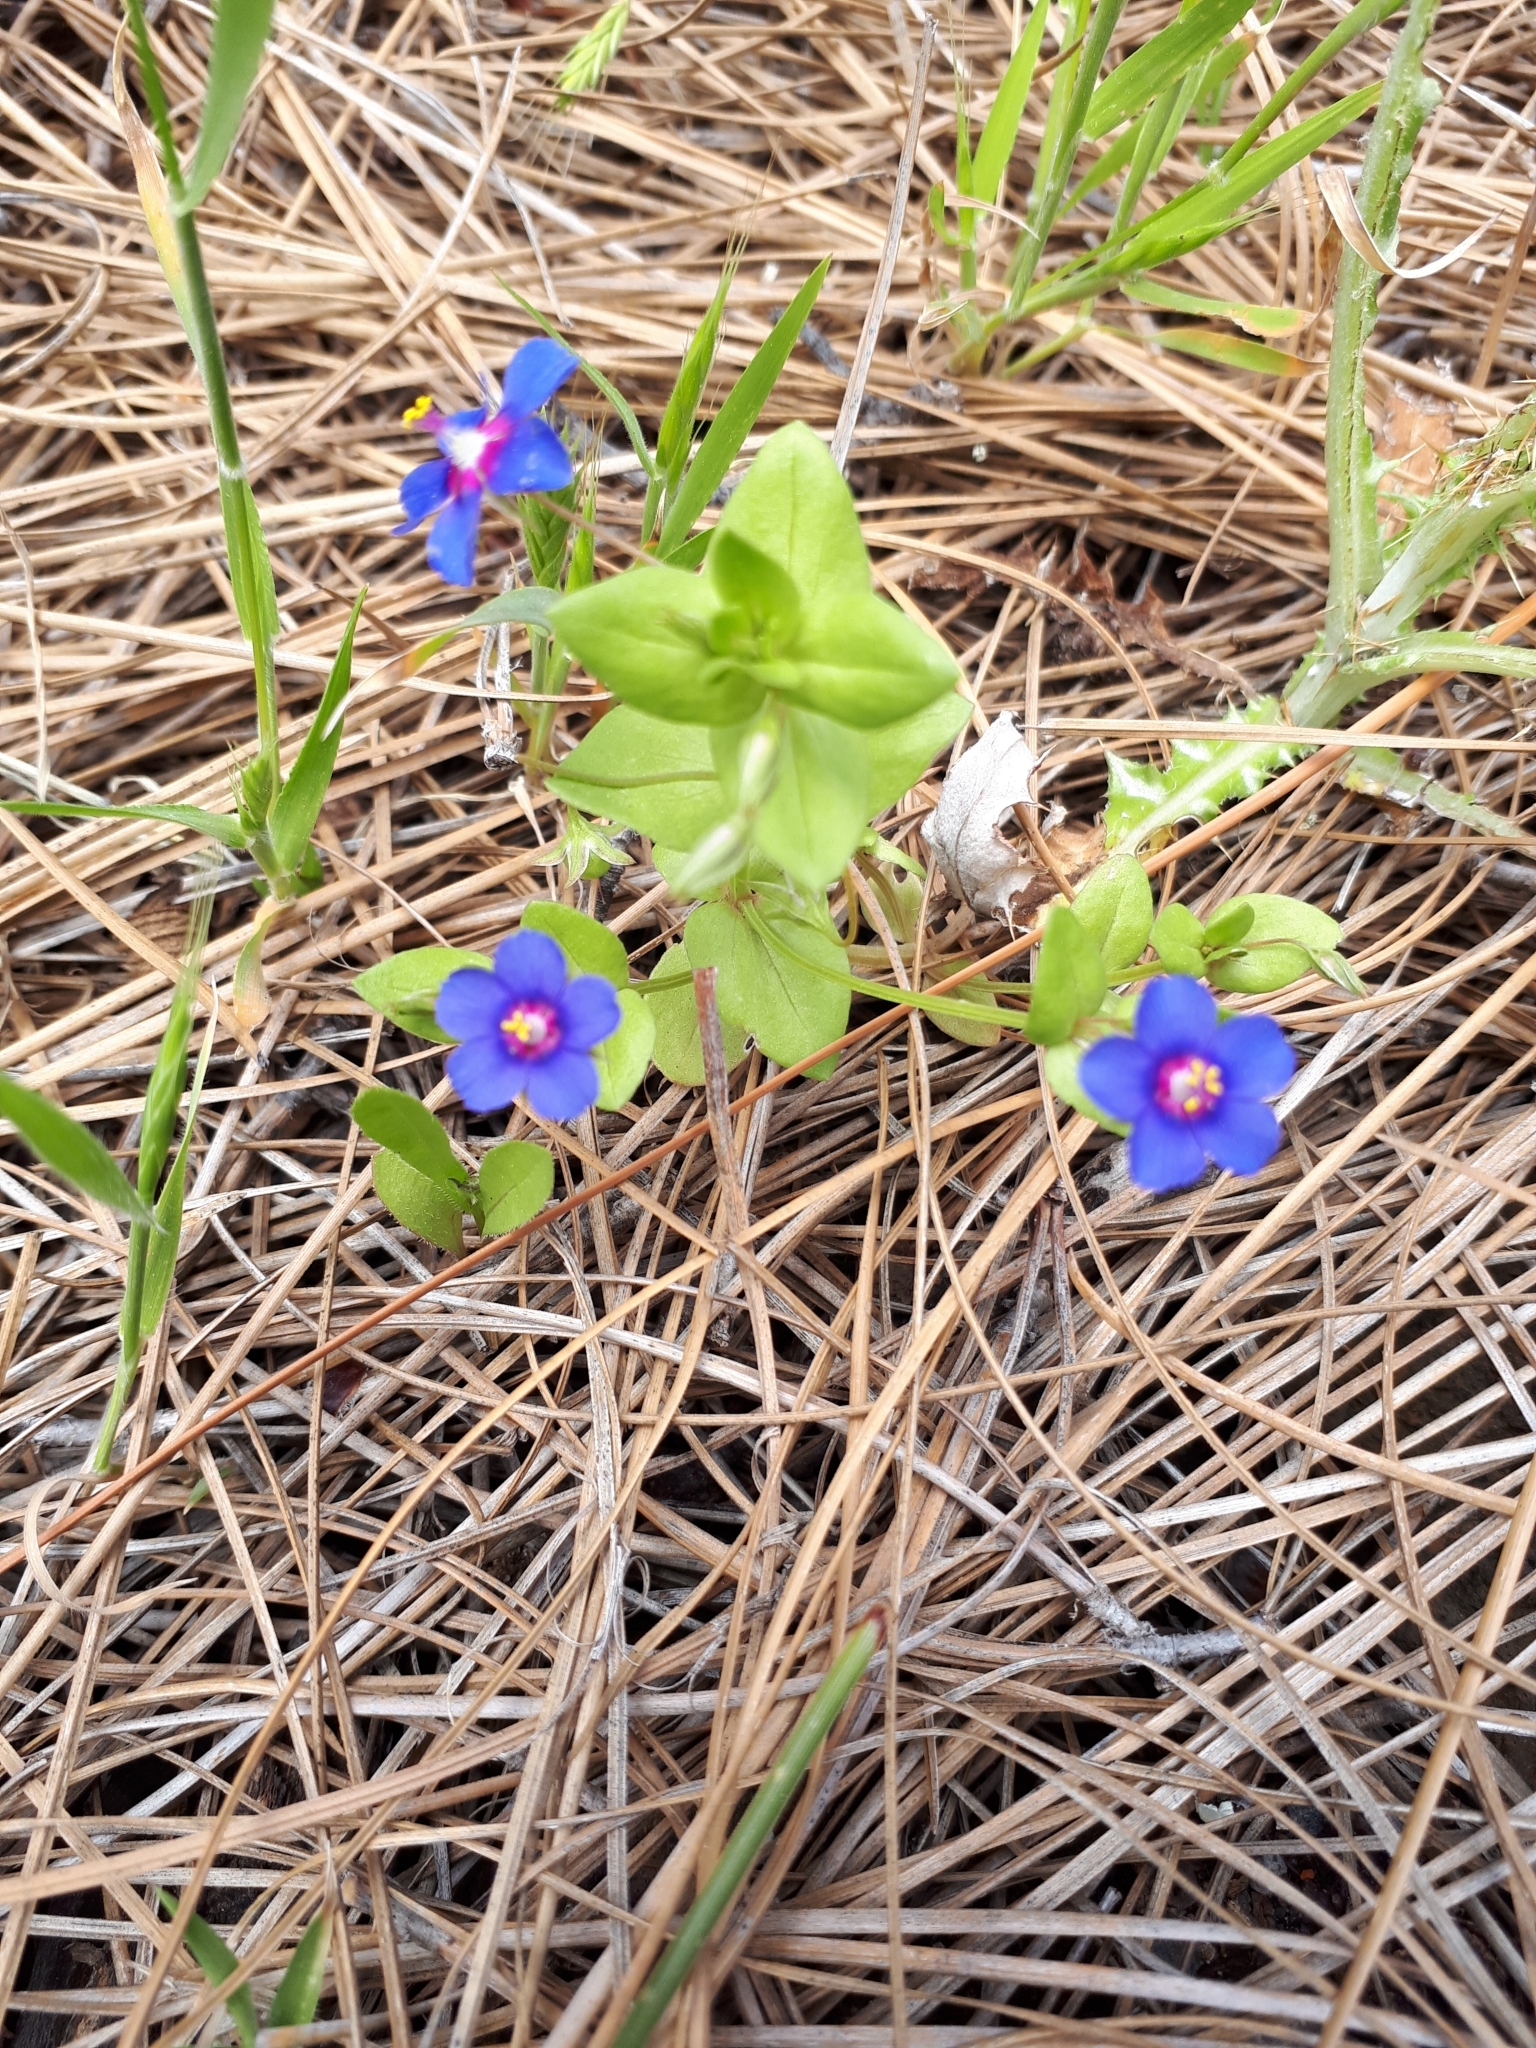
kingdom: Plantae
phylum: Tracheophyta
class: Magnoliopsida
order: Ericales
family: Primulaceae
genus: Lysimachia
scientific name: Lysimachia loeflingii
